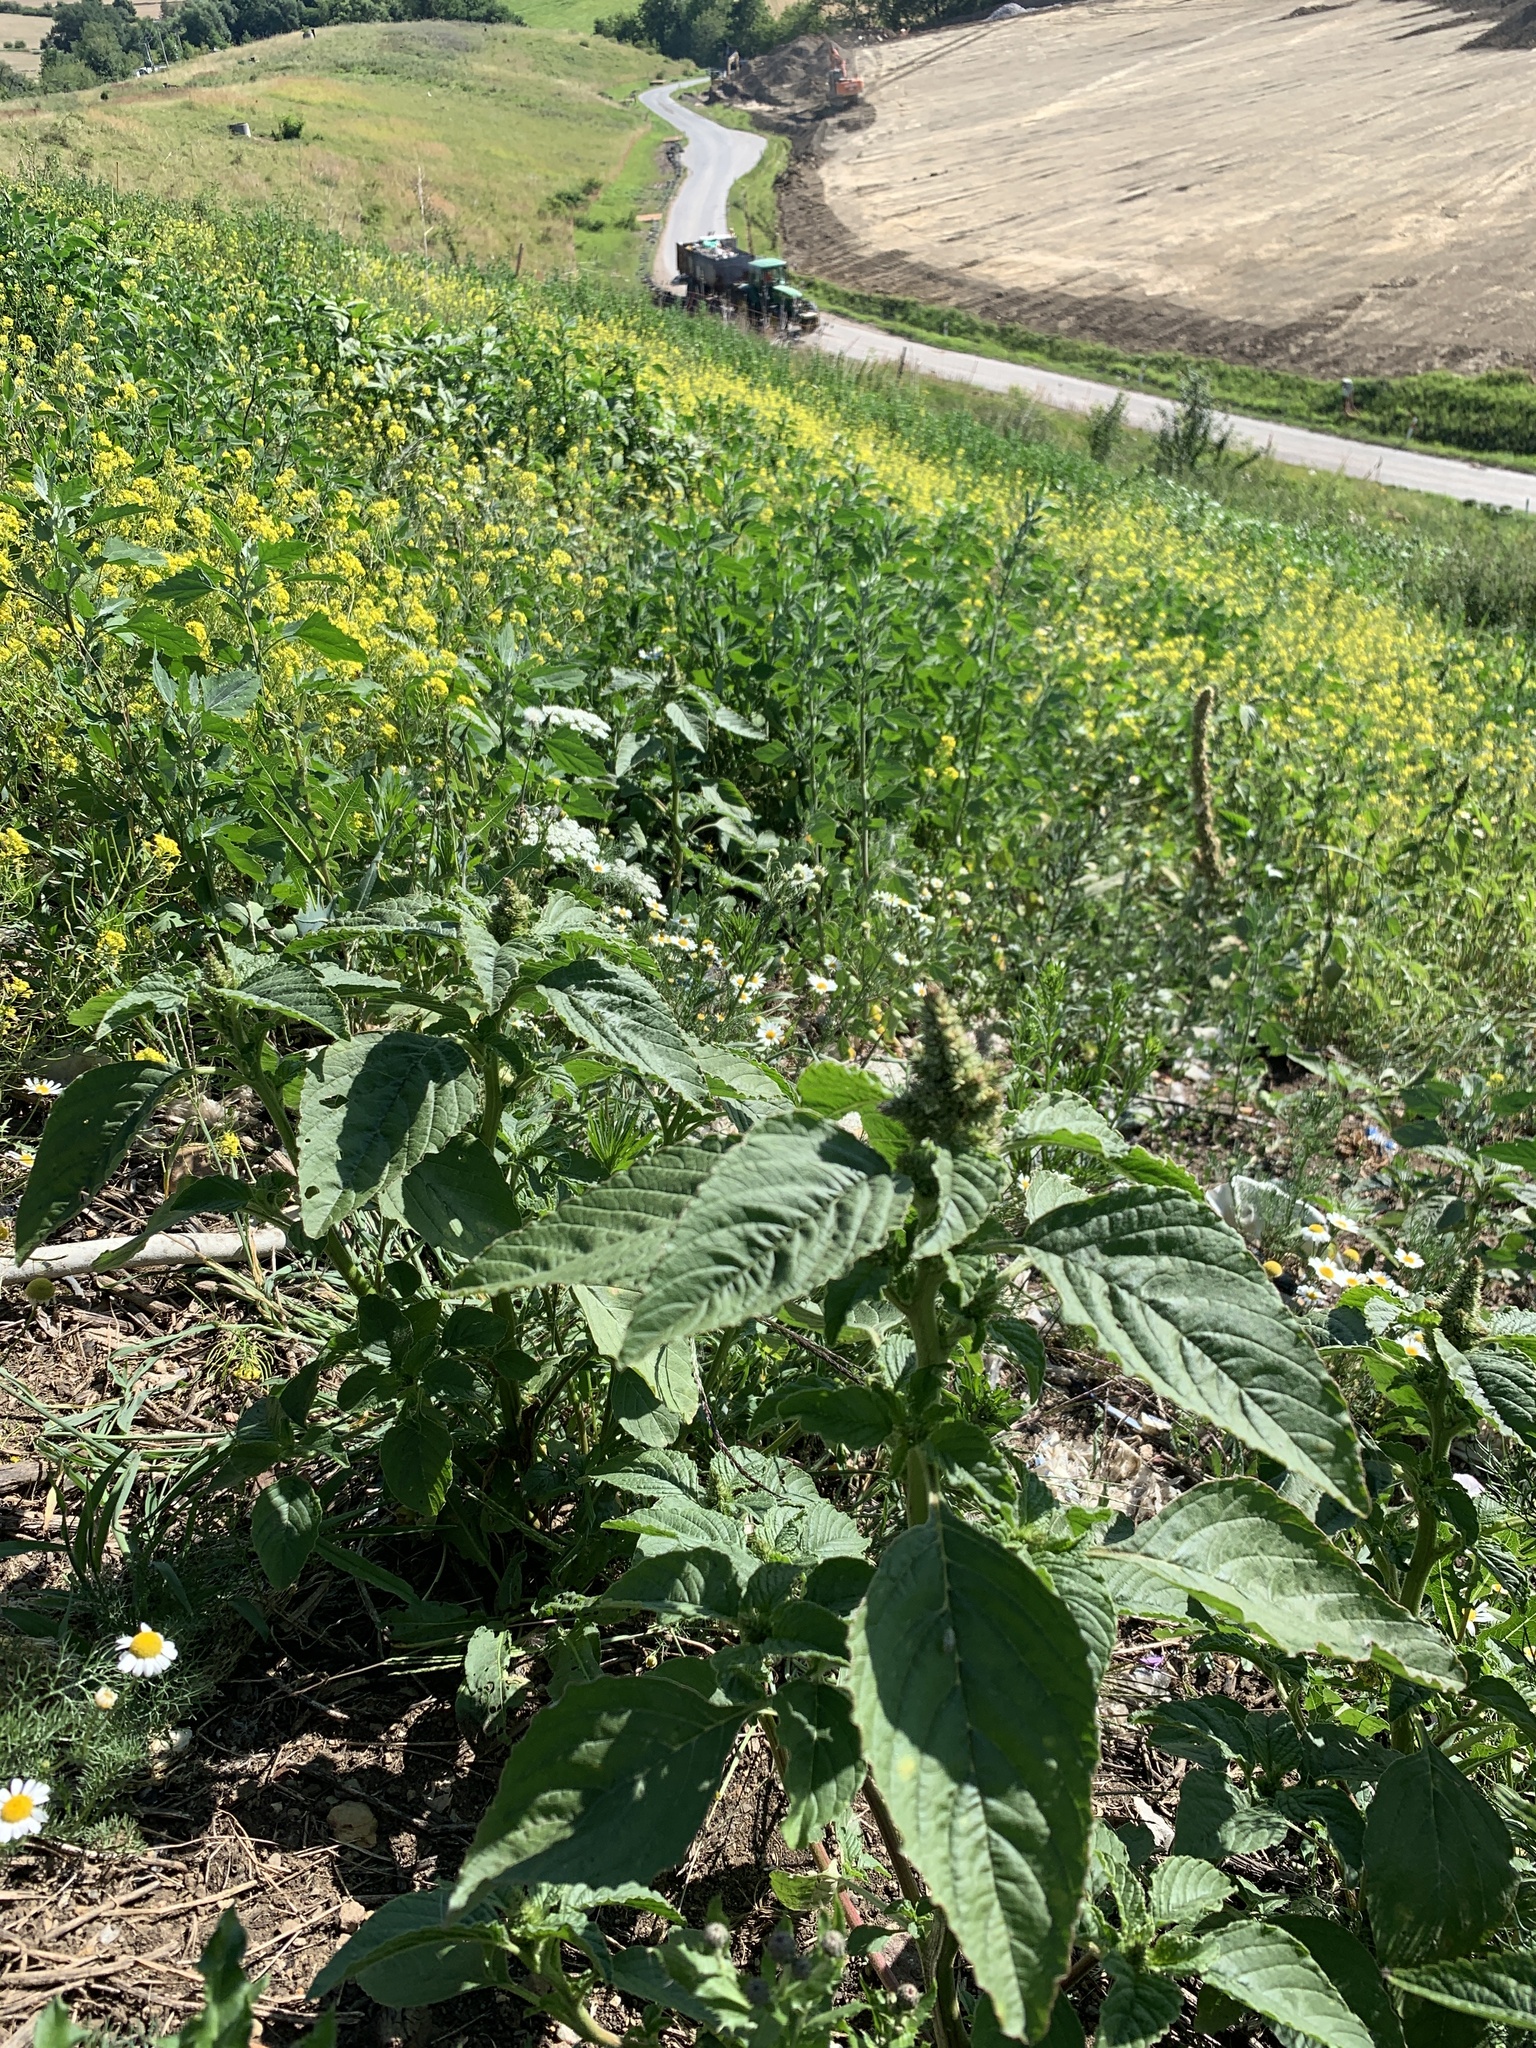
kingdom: Plantae
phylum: Tracheophyta
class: Magnoliopsida
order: Caryophyllales
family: Amaranthaceae
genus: Amaranthus
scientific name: Amaranthus retroflexus
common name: Redroot amaranth
